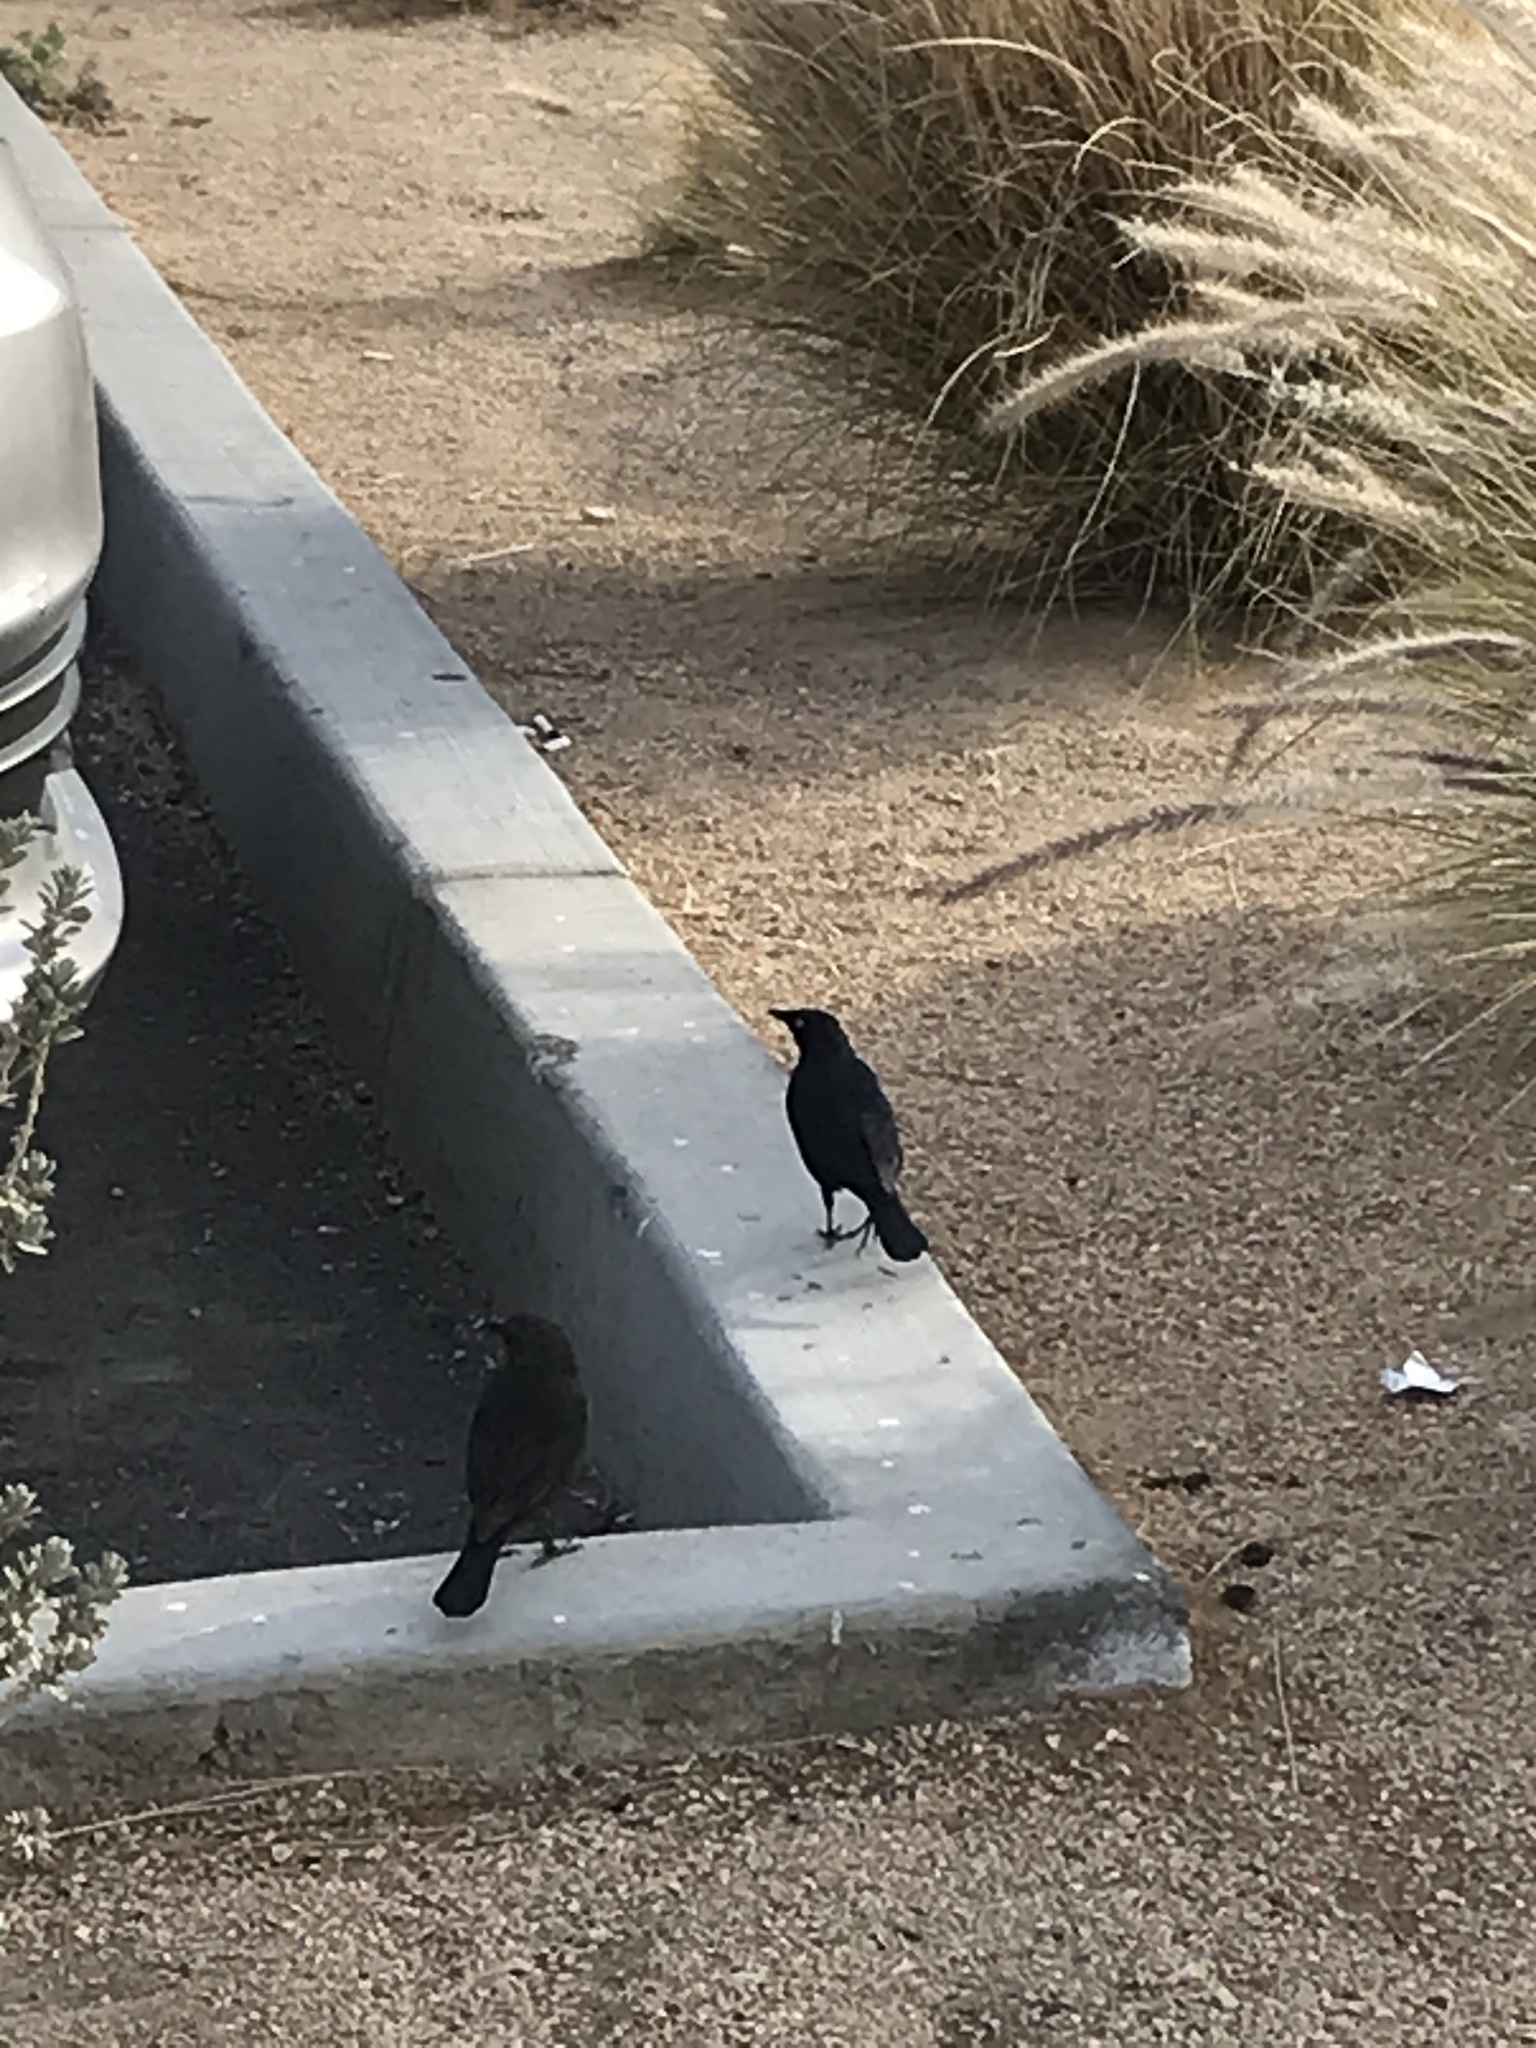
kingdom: Animalia
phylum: Chordata
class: Aves
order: Passeriformes
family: Icteridae
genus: Euphagus
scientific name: Euphagus cyanocephalus
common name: Brewer's blackbird
